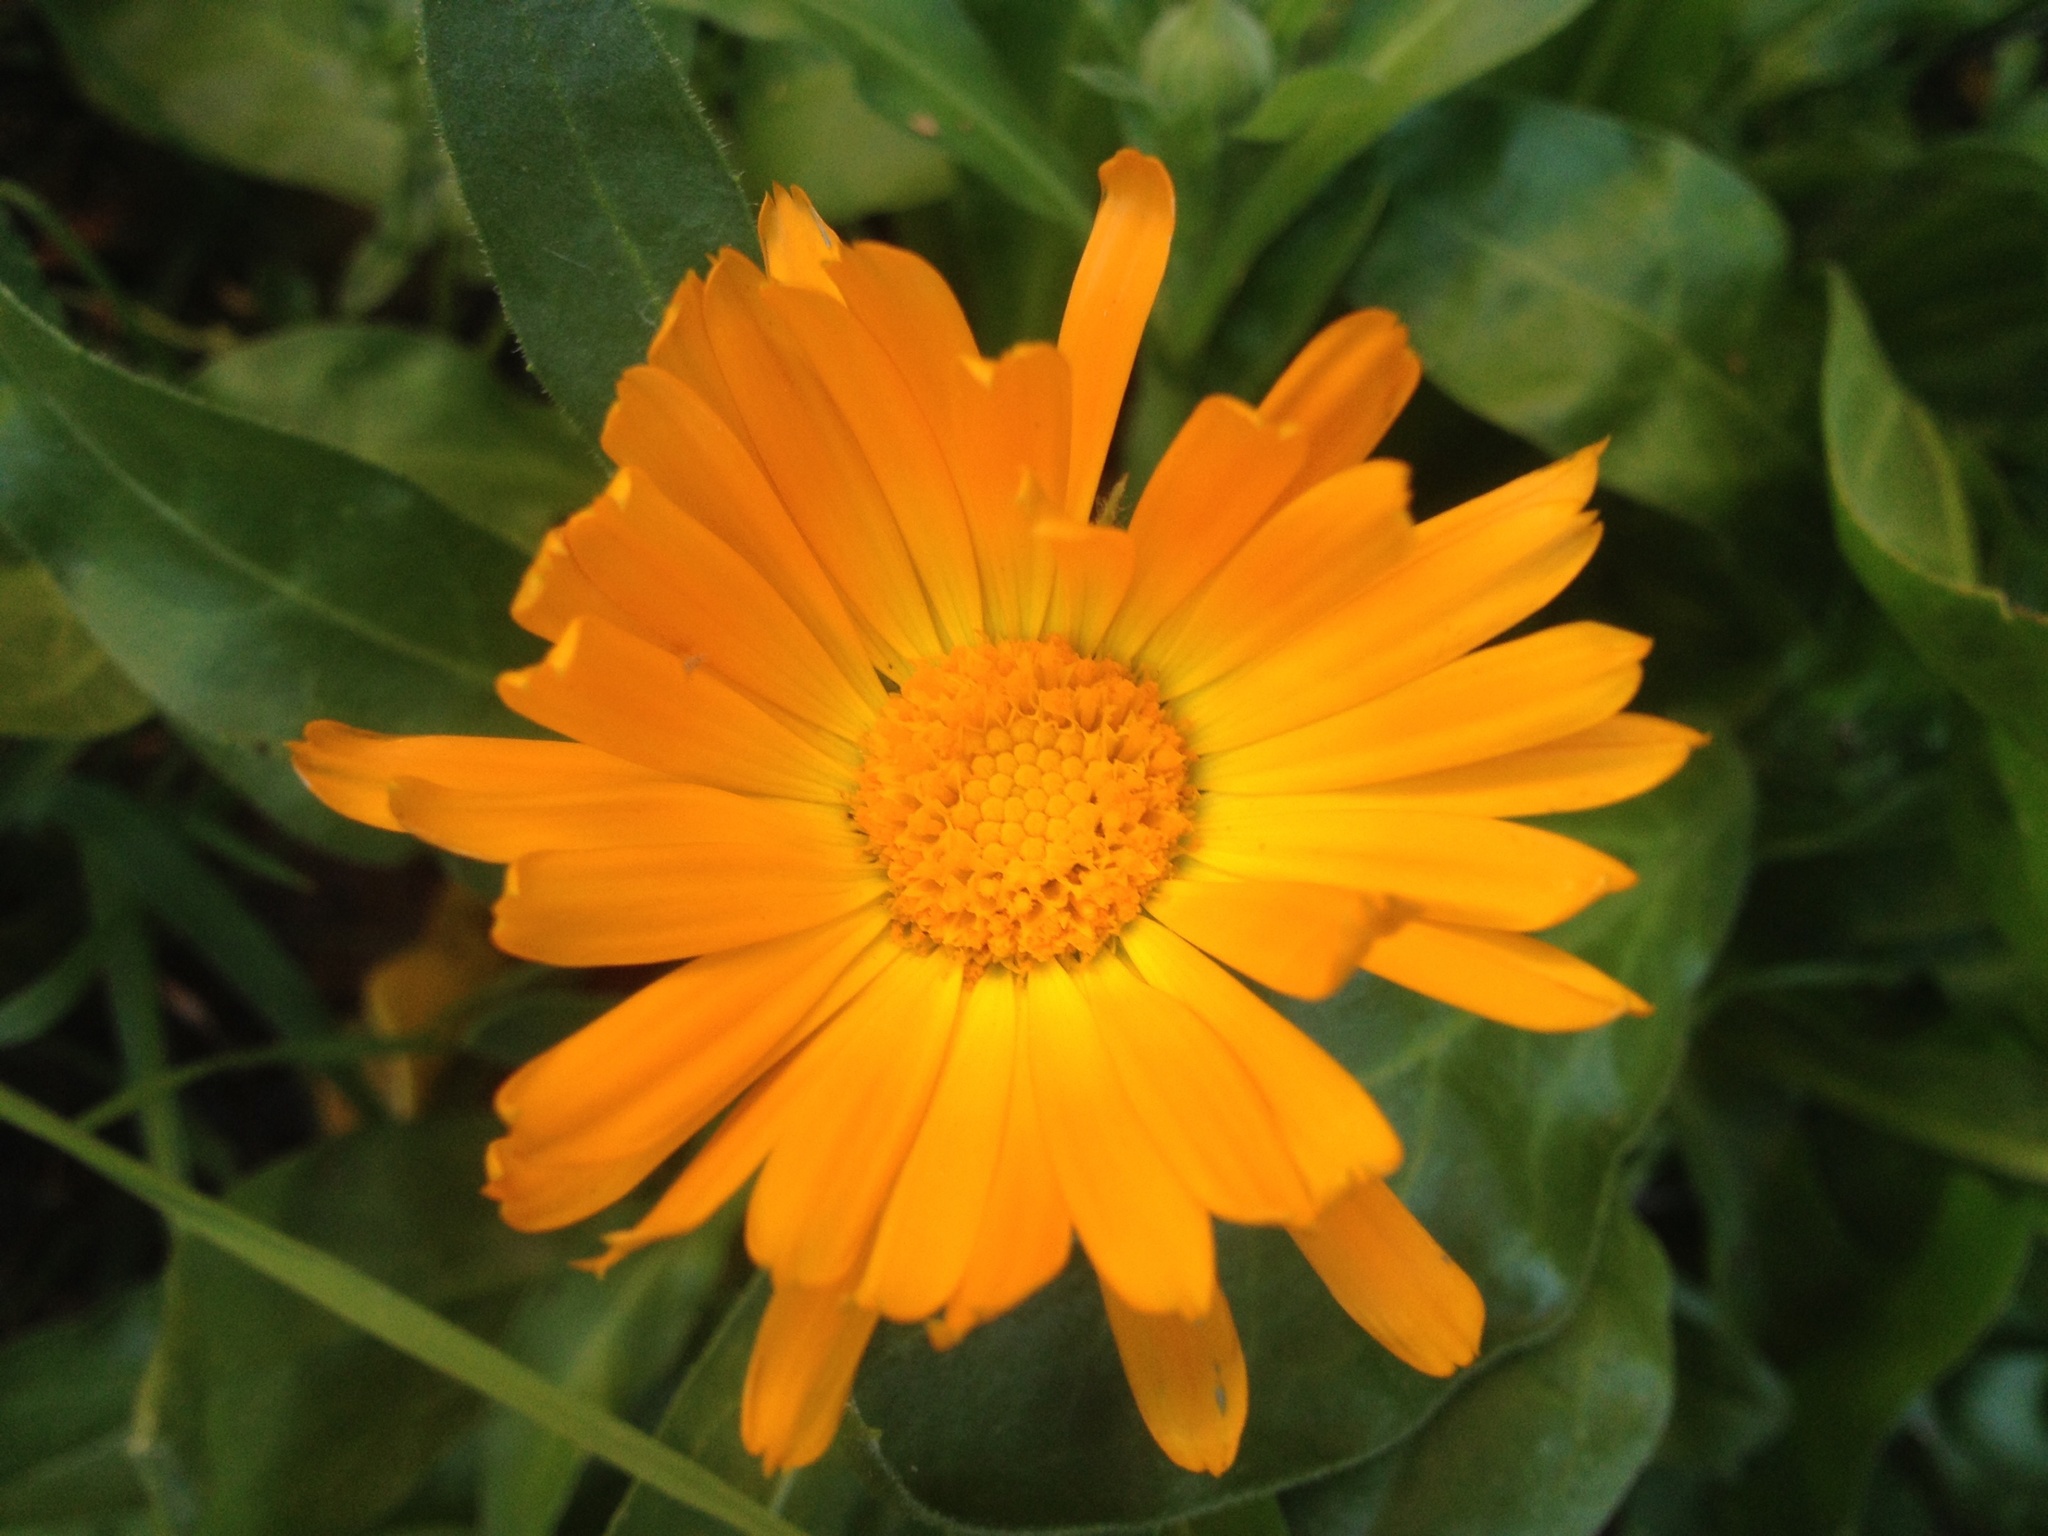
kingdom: Plantae
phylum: Tracheophyta
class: Magnoliopsida
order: Asterales
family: Asteraceae
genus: Calendula
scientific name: Calendula officinalis
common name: Pot marigold
